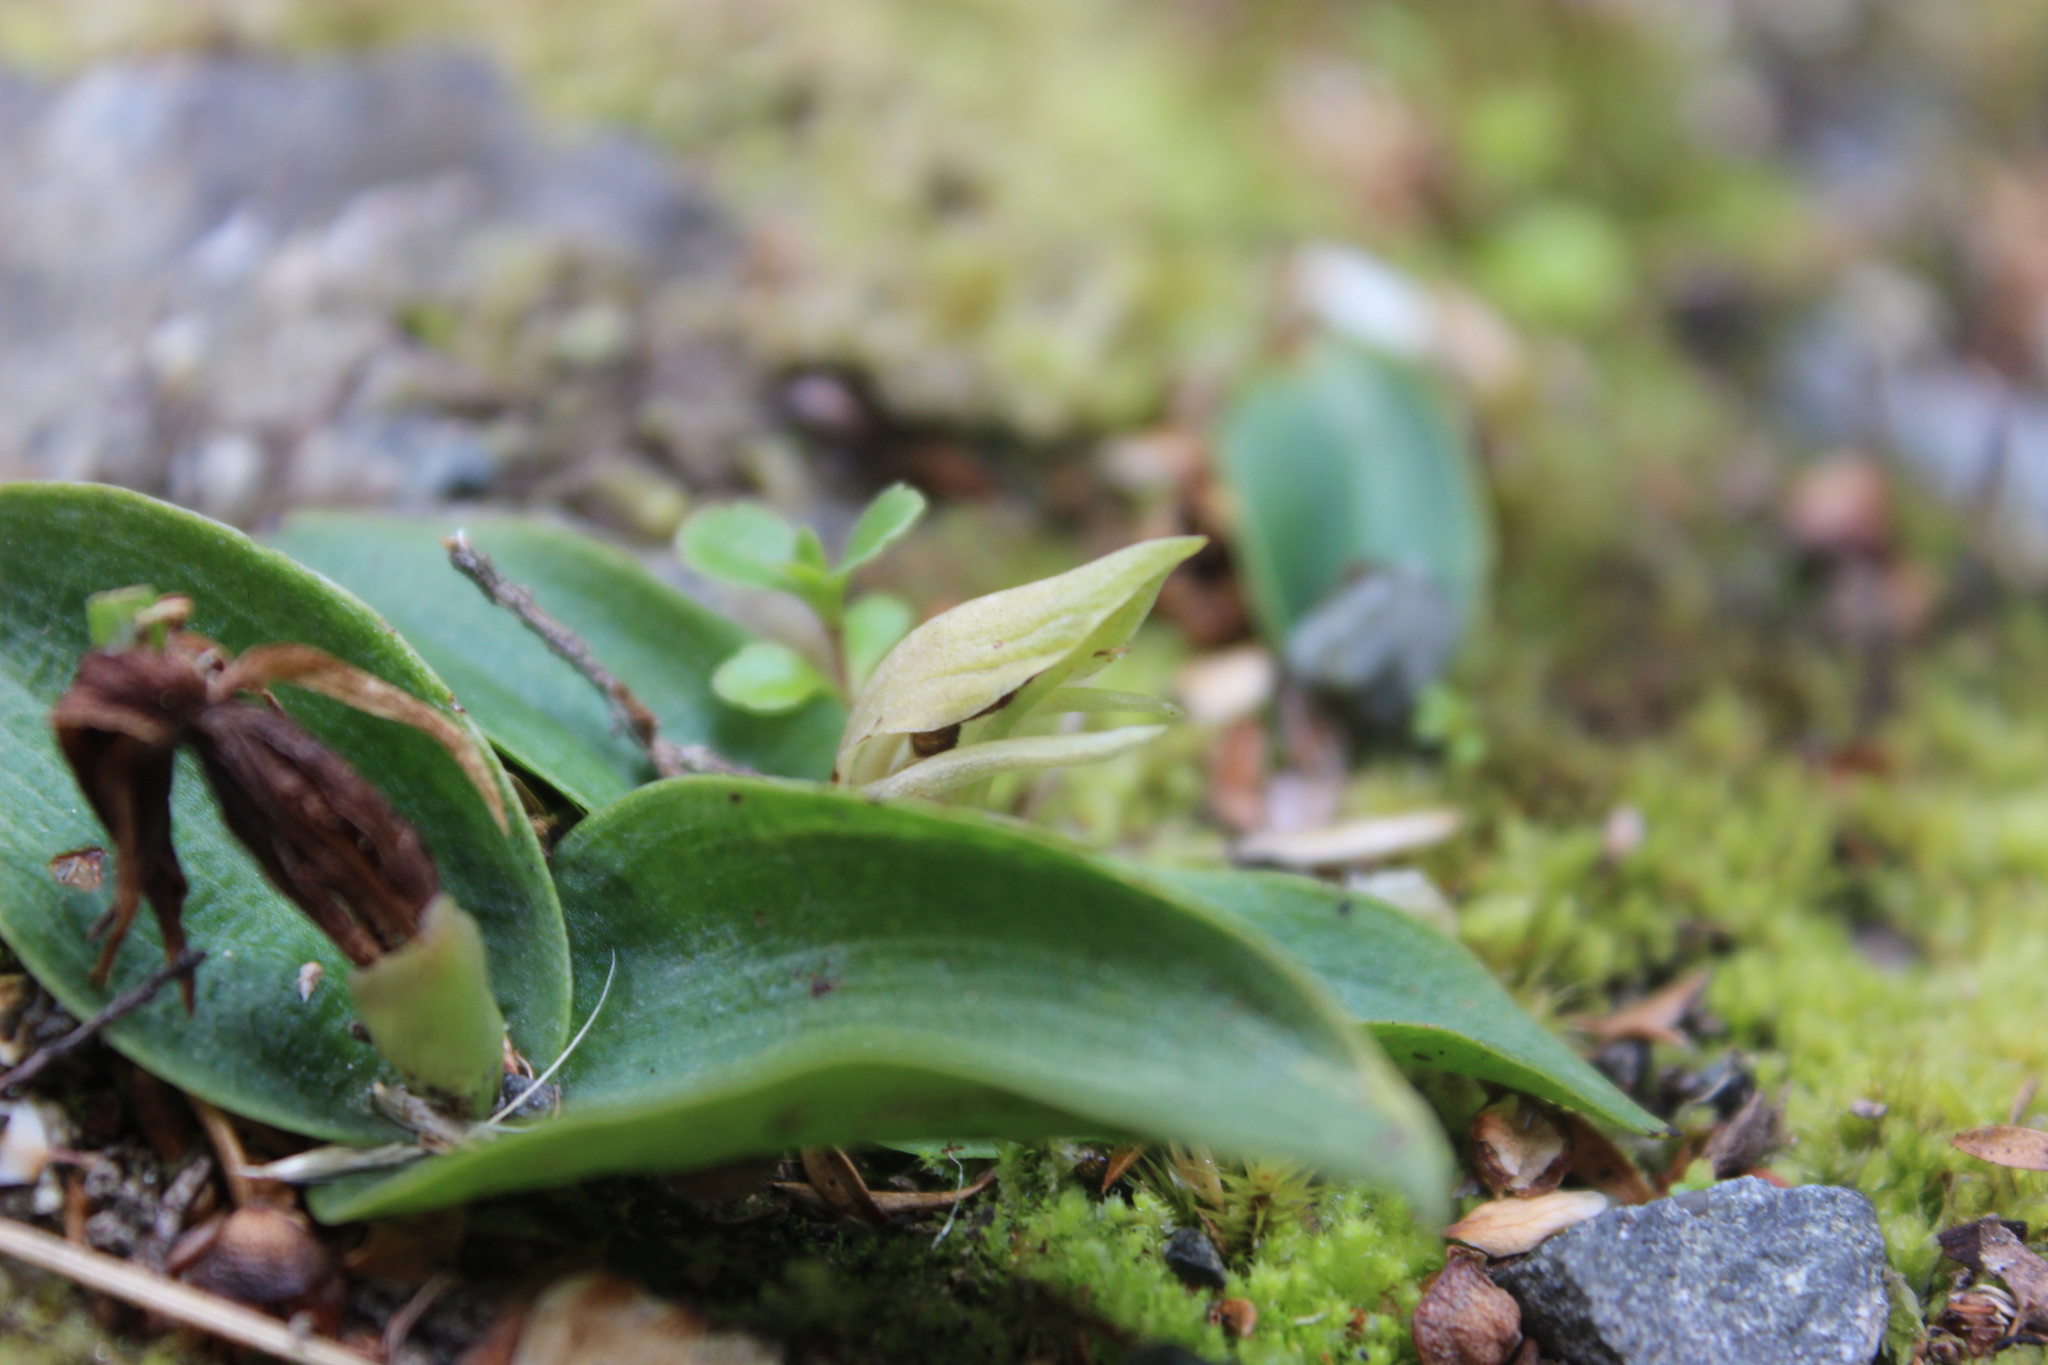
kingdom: Plantae
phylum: Tracheophyta
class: Liliopsida
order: Asparagales
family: Orchidaceae
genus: Chiloglottis
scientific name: Chiloglottis cornuta
